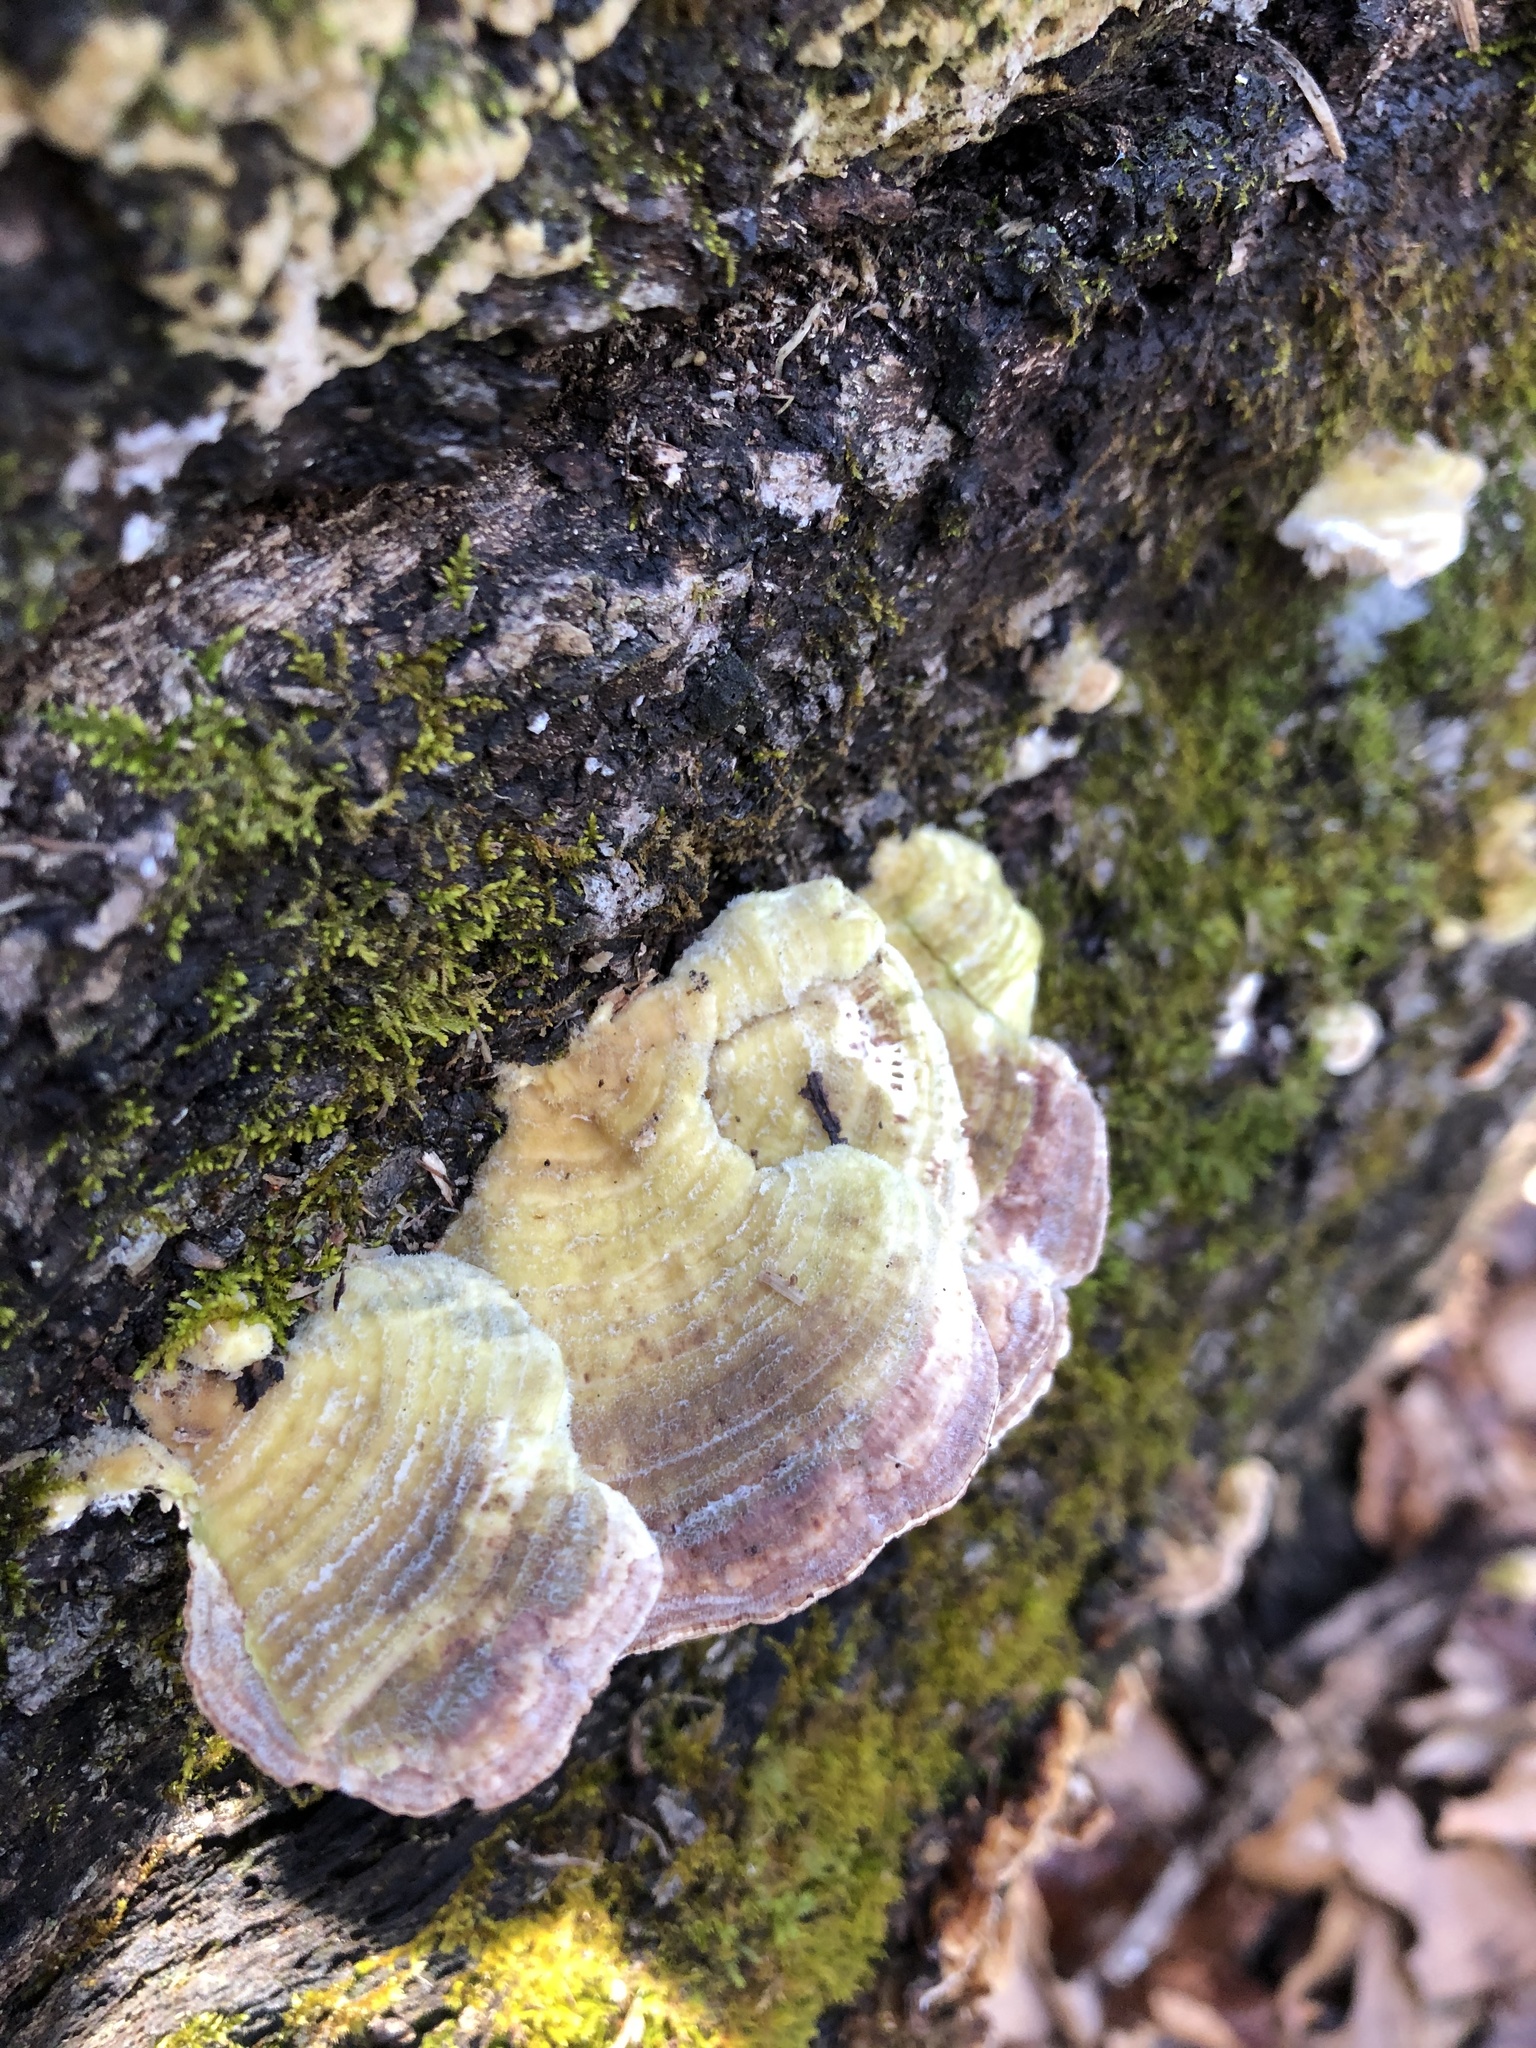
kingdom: Fungi
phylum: Basidiomycota
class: Agaricomycetes
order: Polyporales
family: Polyporaceae
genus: Lenzites
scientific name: Lenzites betulinus
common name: Birch mazegill
